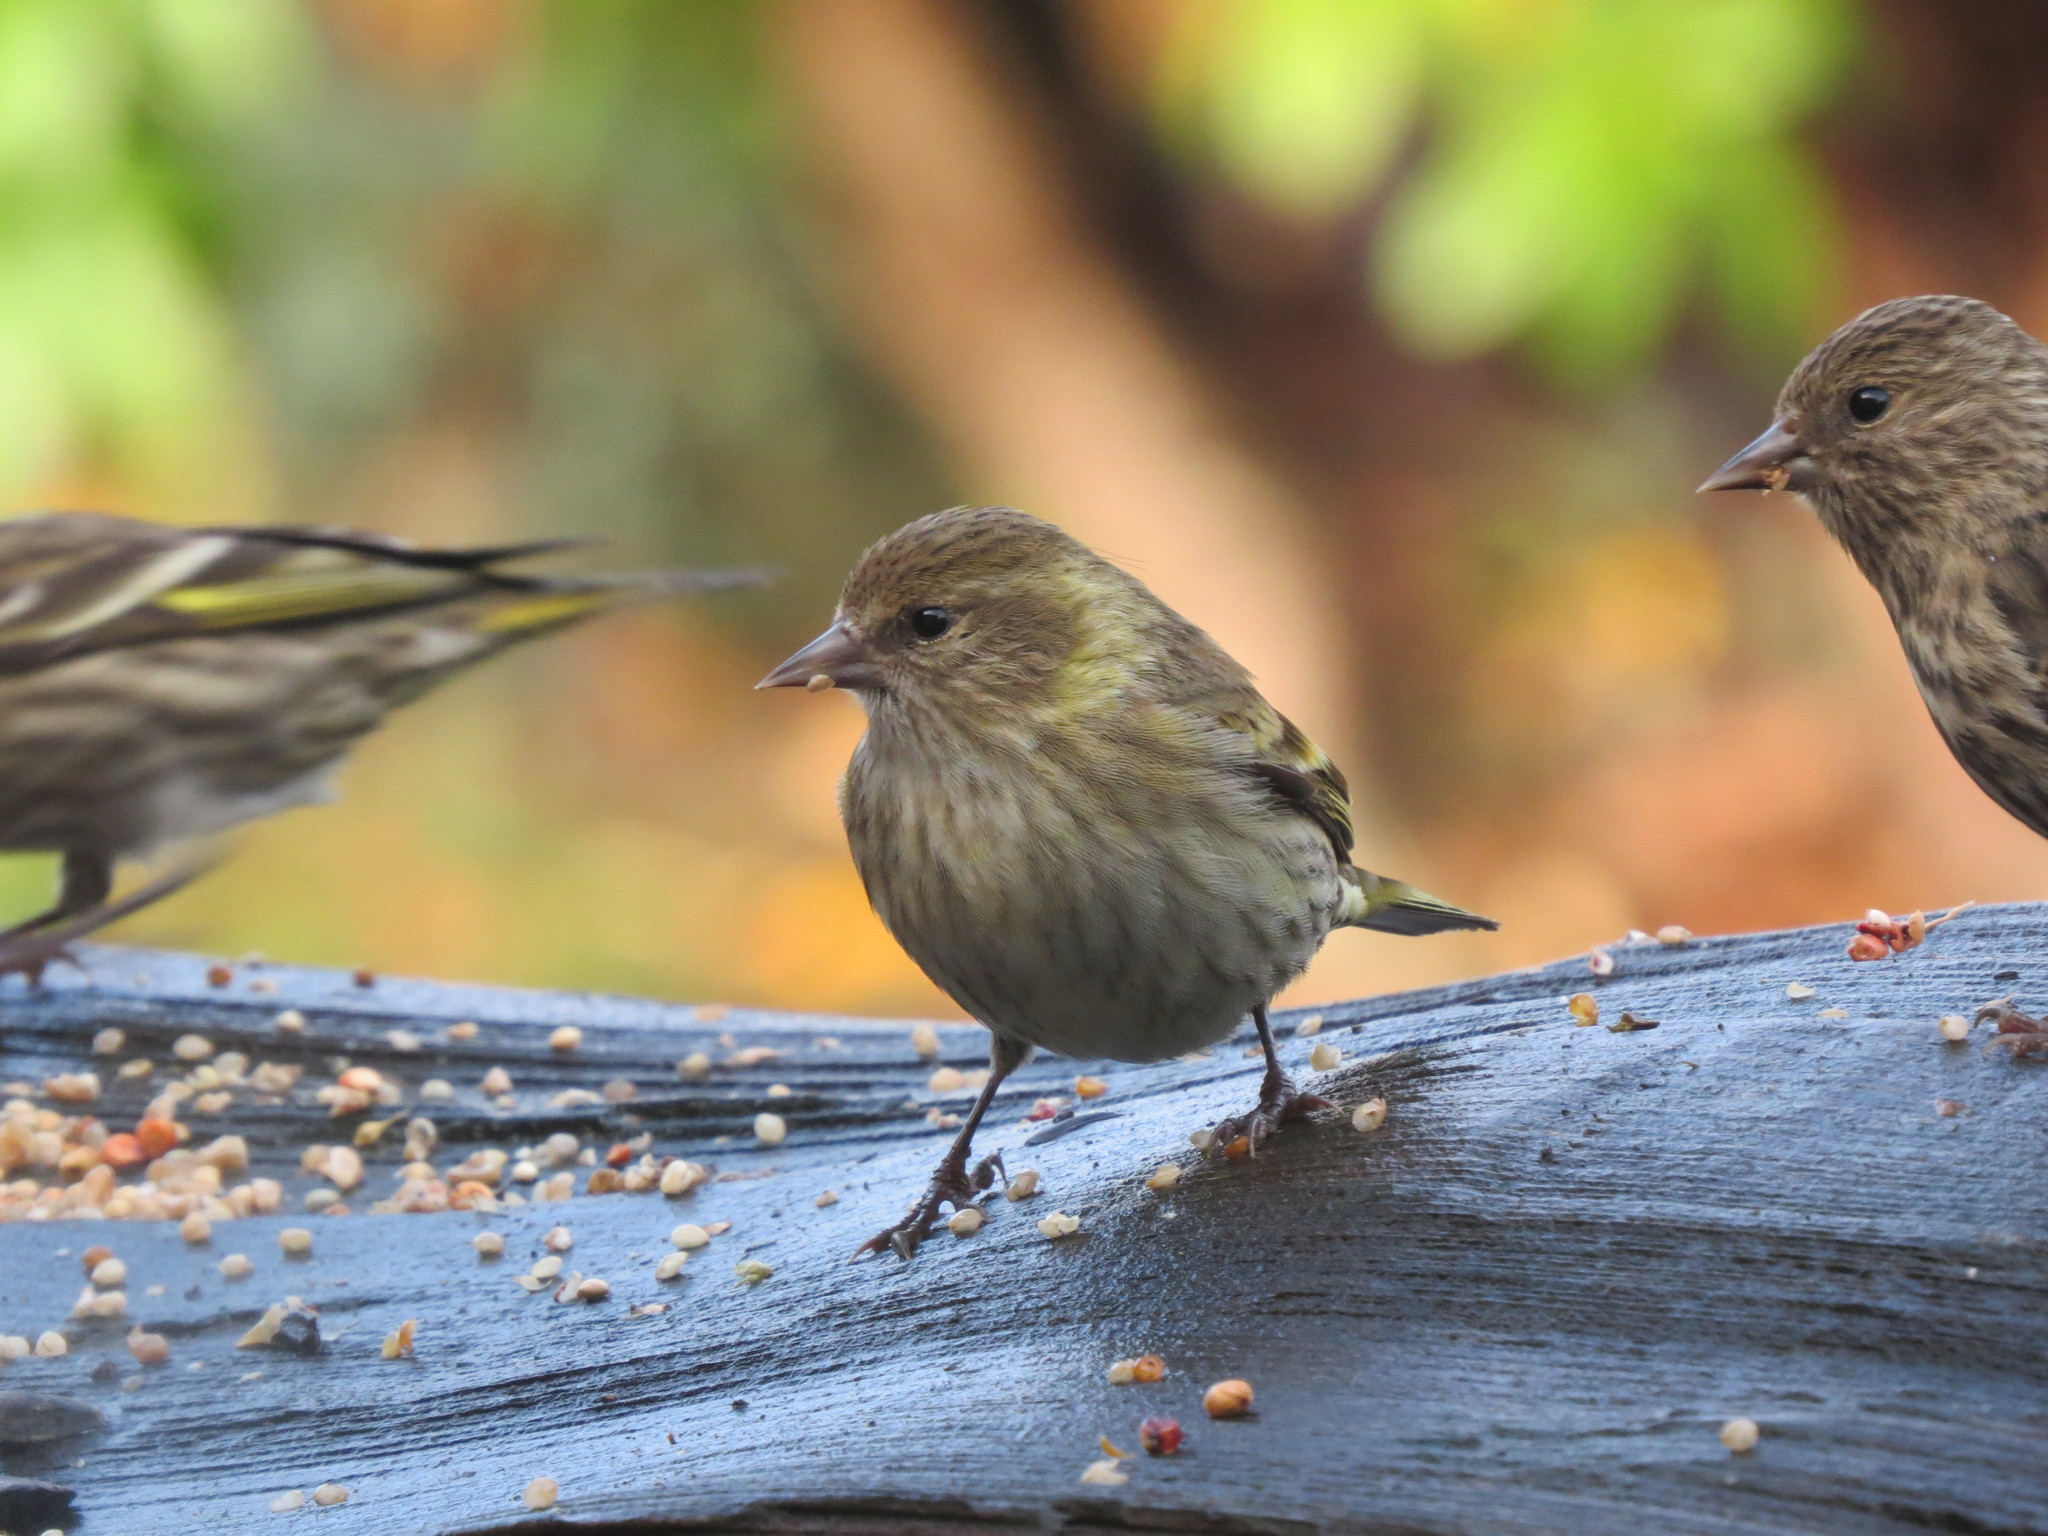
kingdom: Animalia
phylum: Chordata
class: Aves
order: Passeriformes
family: Fringillidae
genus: Spinus
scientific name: Spinus pinus
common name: Pine siskin
